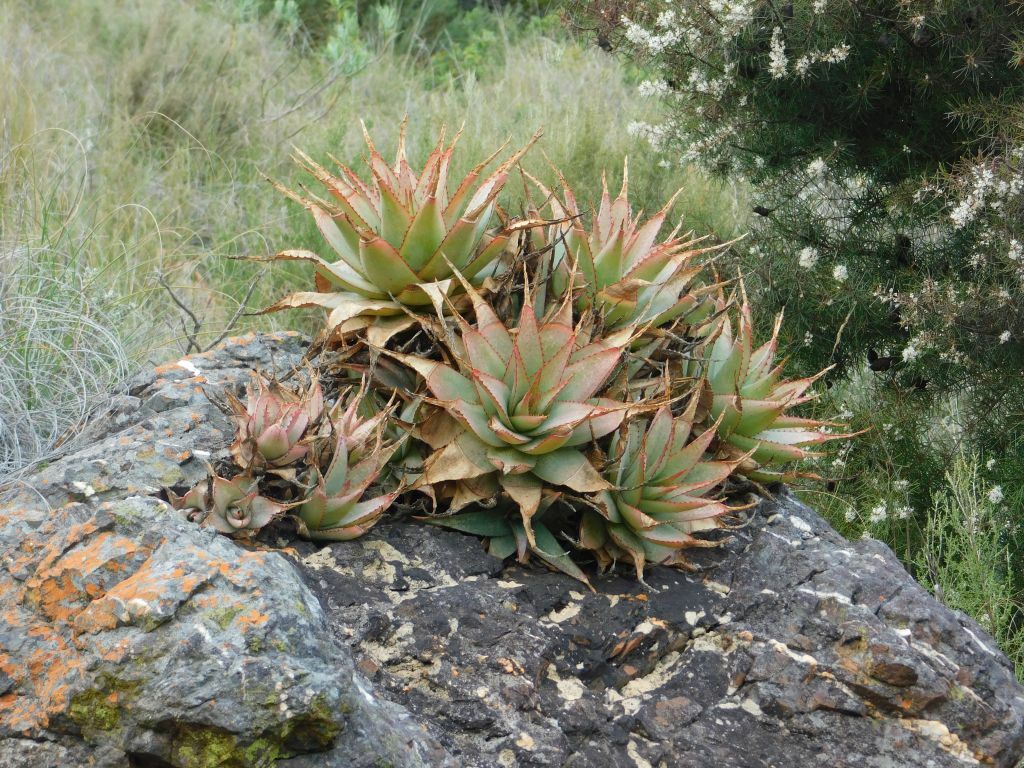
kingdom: Plantae
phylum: Tracheophyta
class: Liliopsida
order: Asparagales
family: Asphodelaceae
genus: Aloe
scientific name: Aloe glauca
